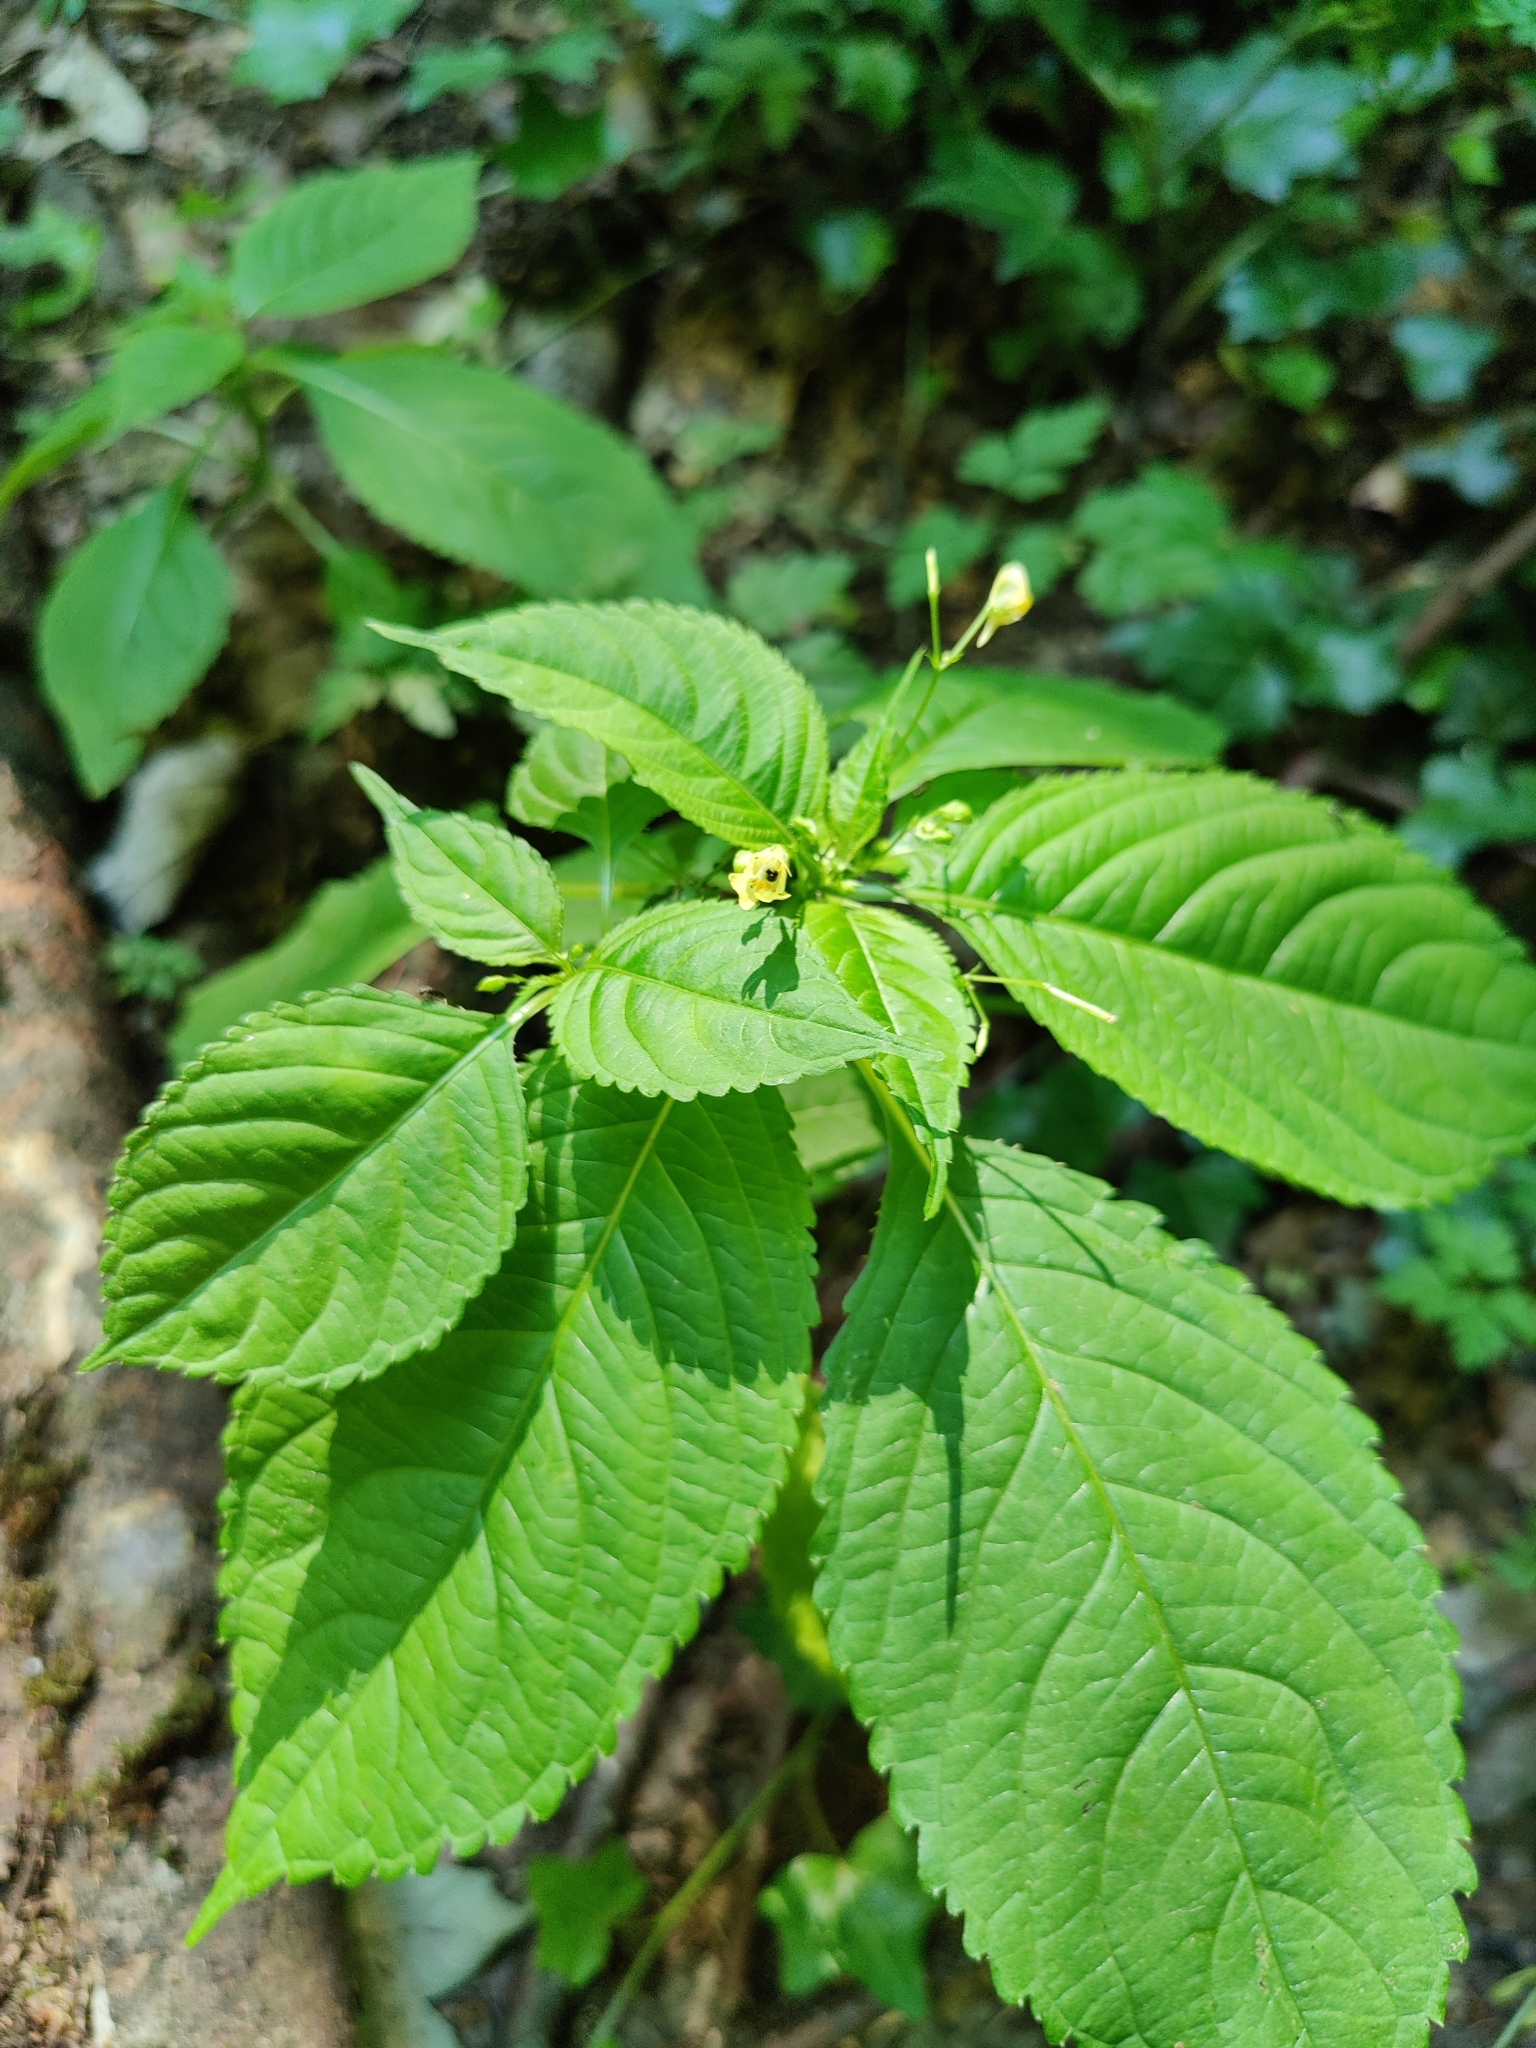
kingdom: Plantae
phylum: Tracheophyta
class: Magnoliopsida
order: Ericales
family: Balsaminaceae
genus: Impatiens
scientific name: Impatiens parviflora
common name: Small balsam
